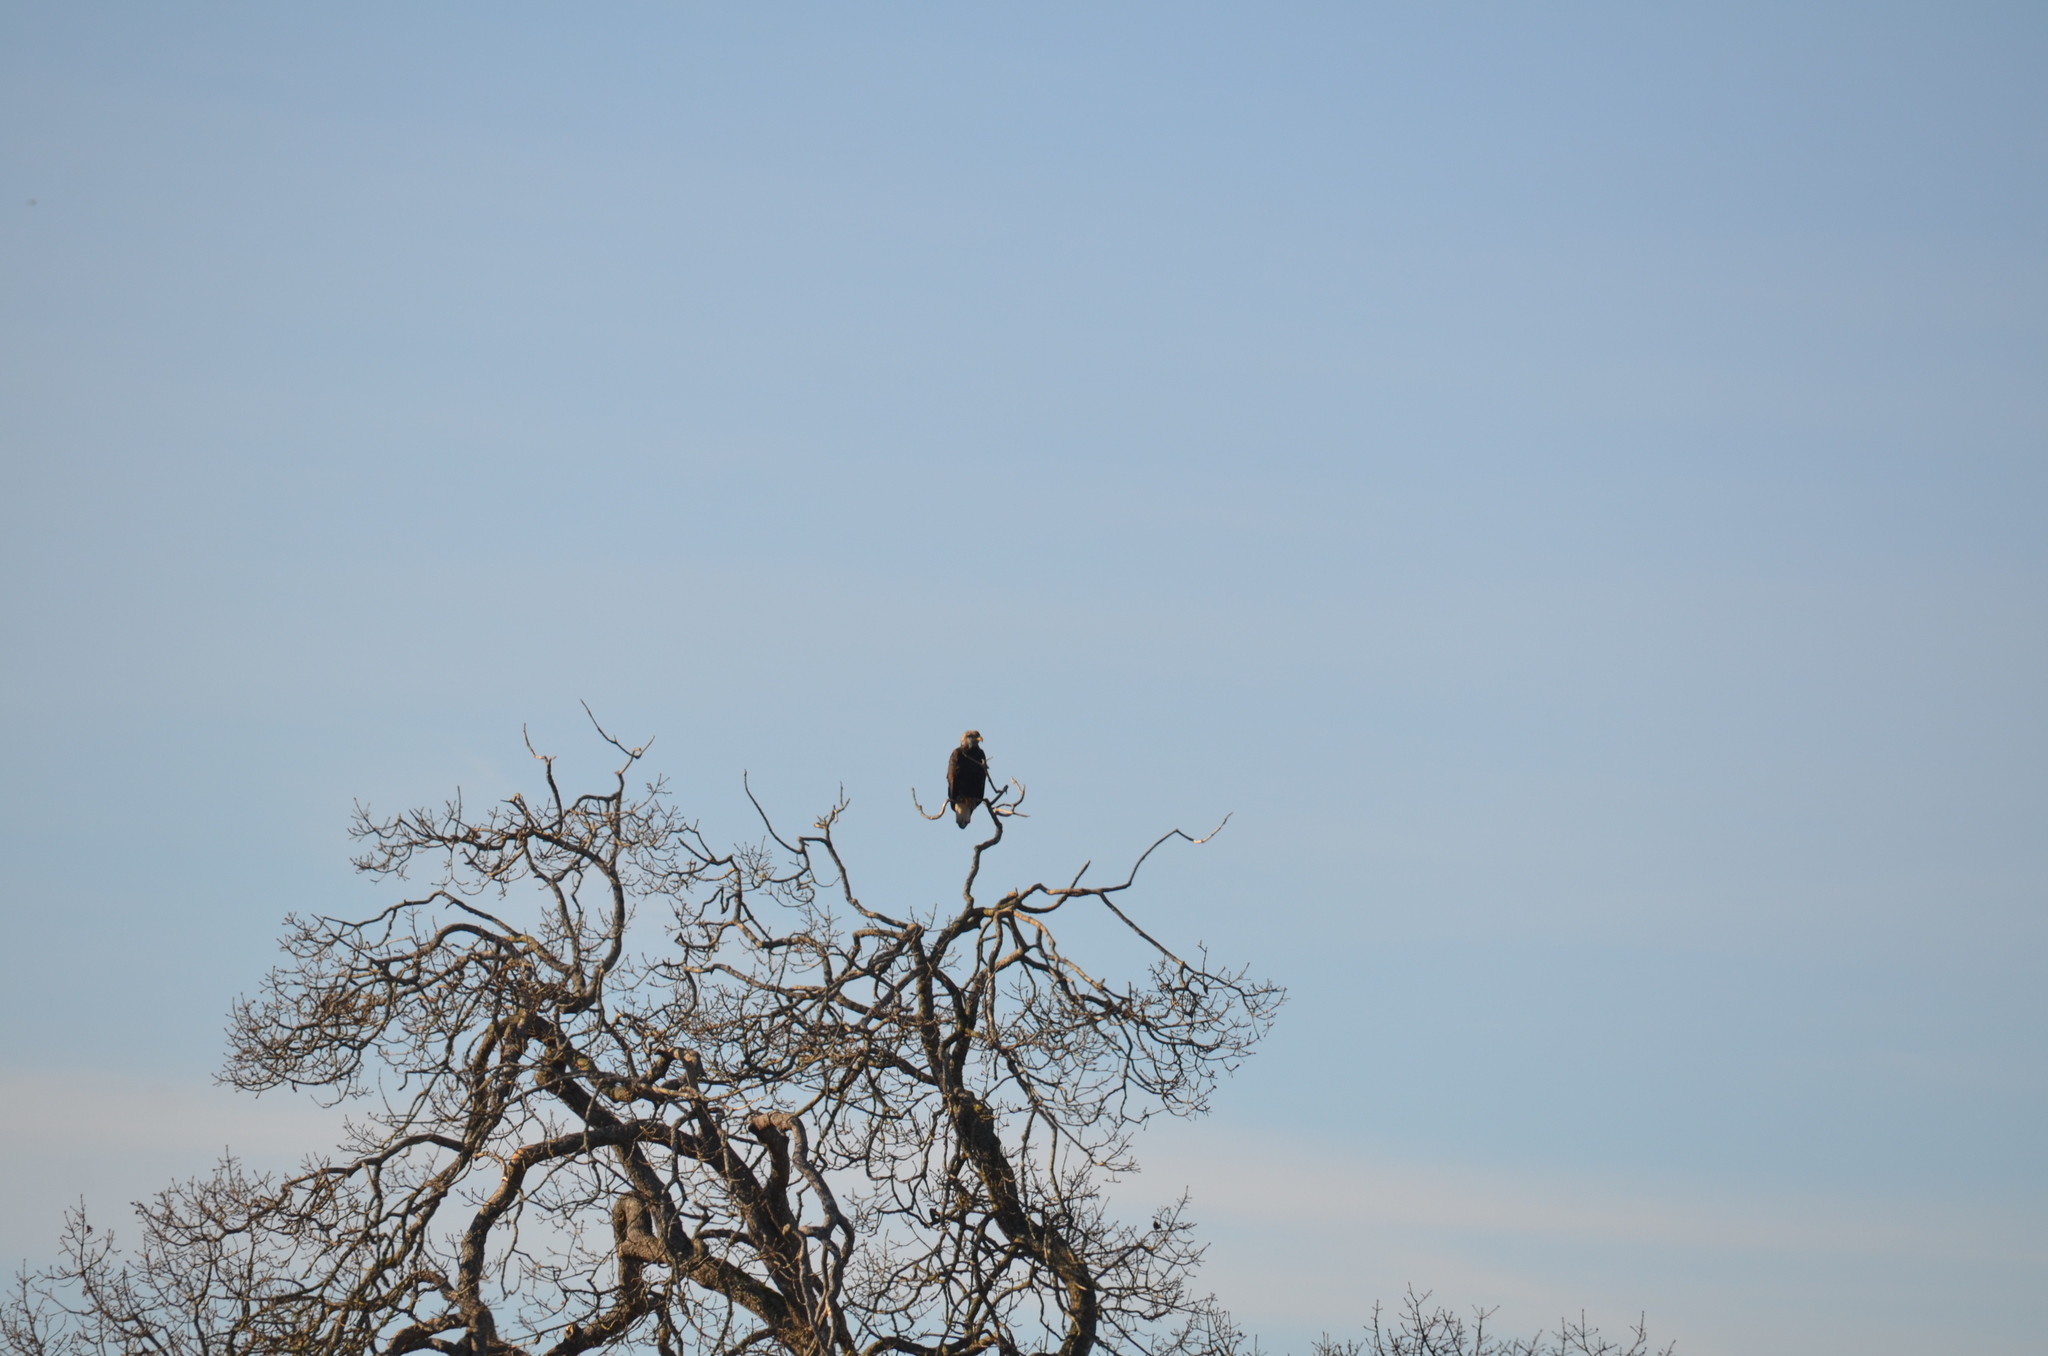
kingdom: Animalia
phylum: Chordata
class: Aves
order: Accipitriformes
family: Accipitridae
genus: Haliaeetus
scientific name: Haliaeetus leucocephalus
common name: Bald eagle
